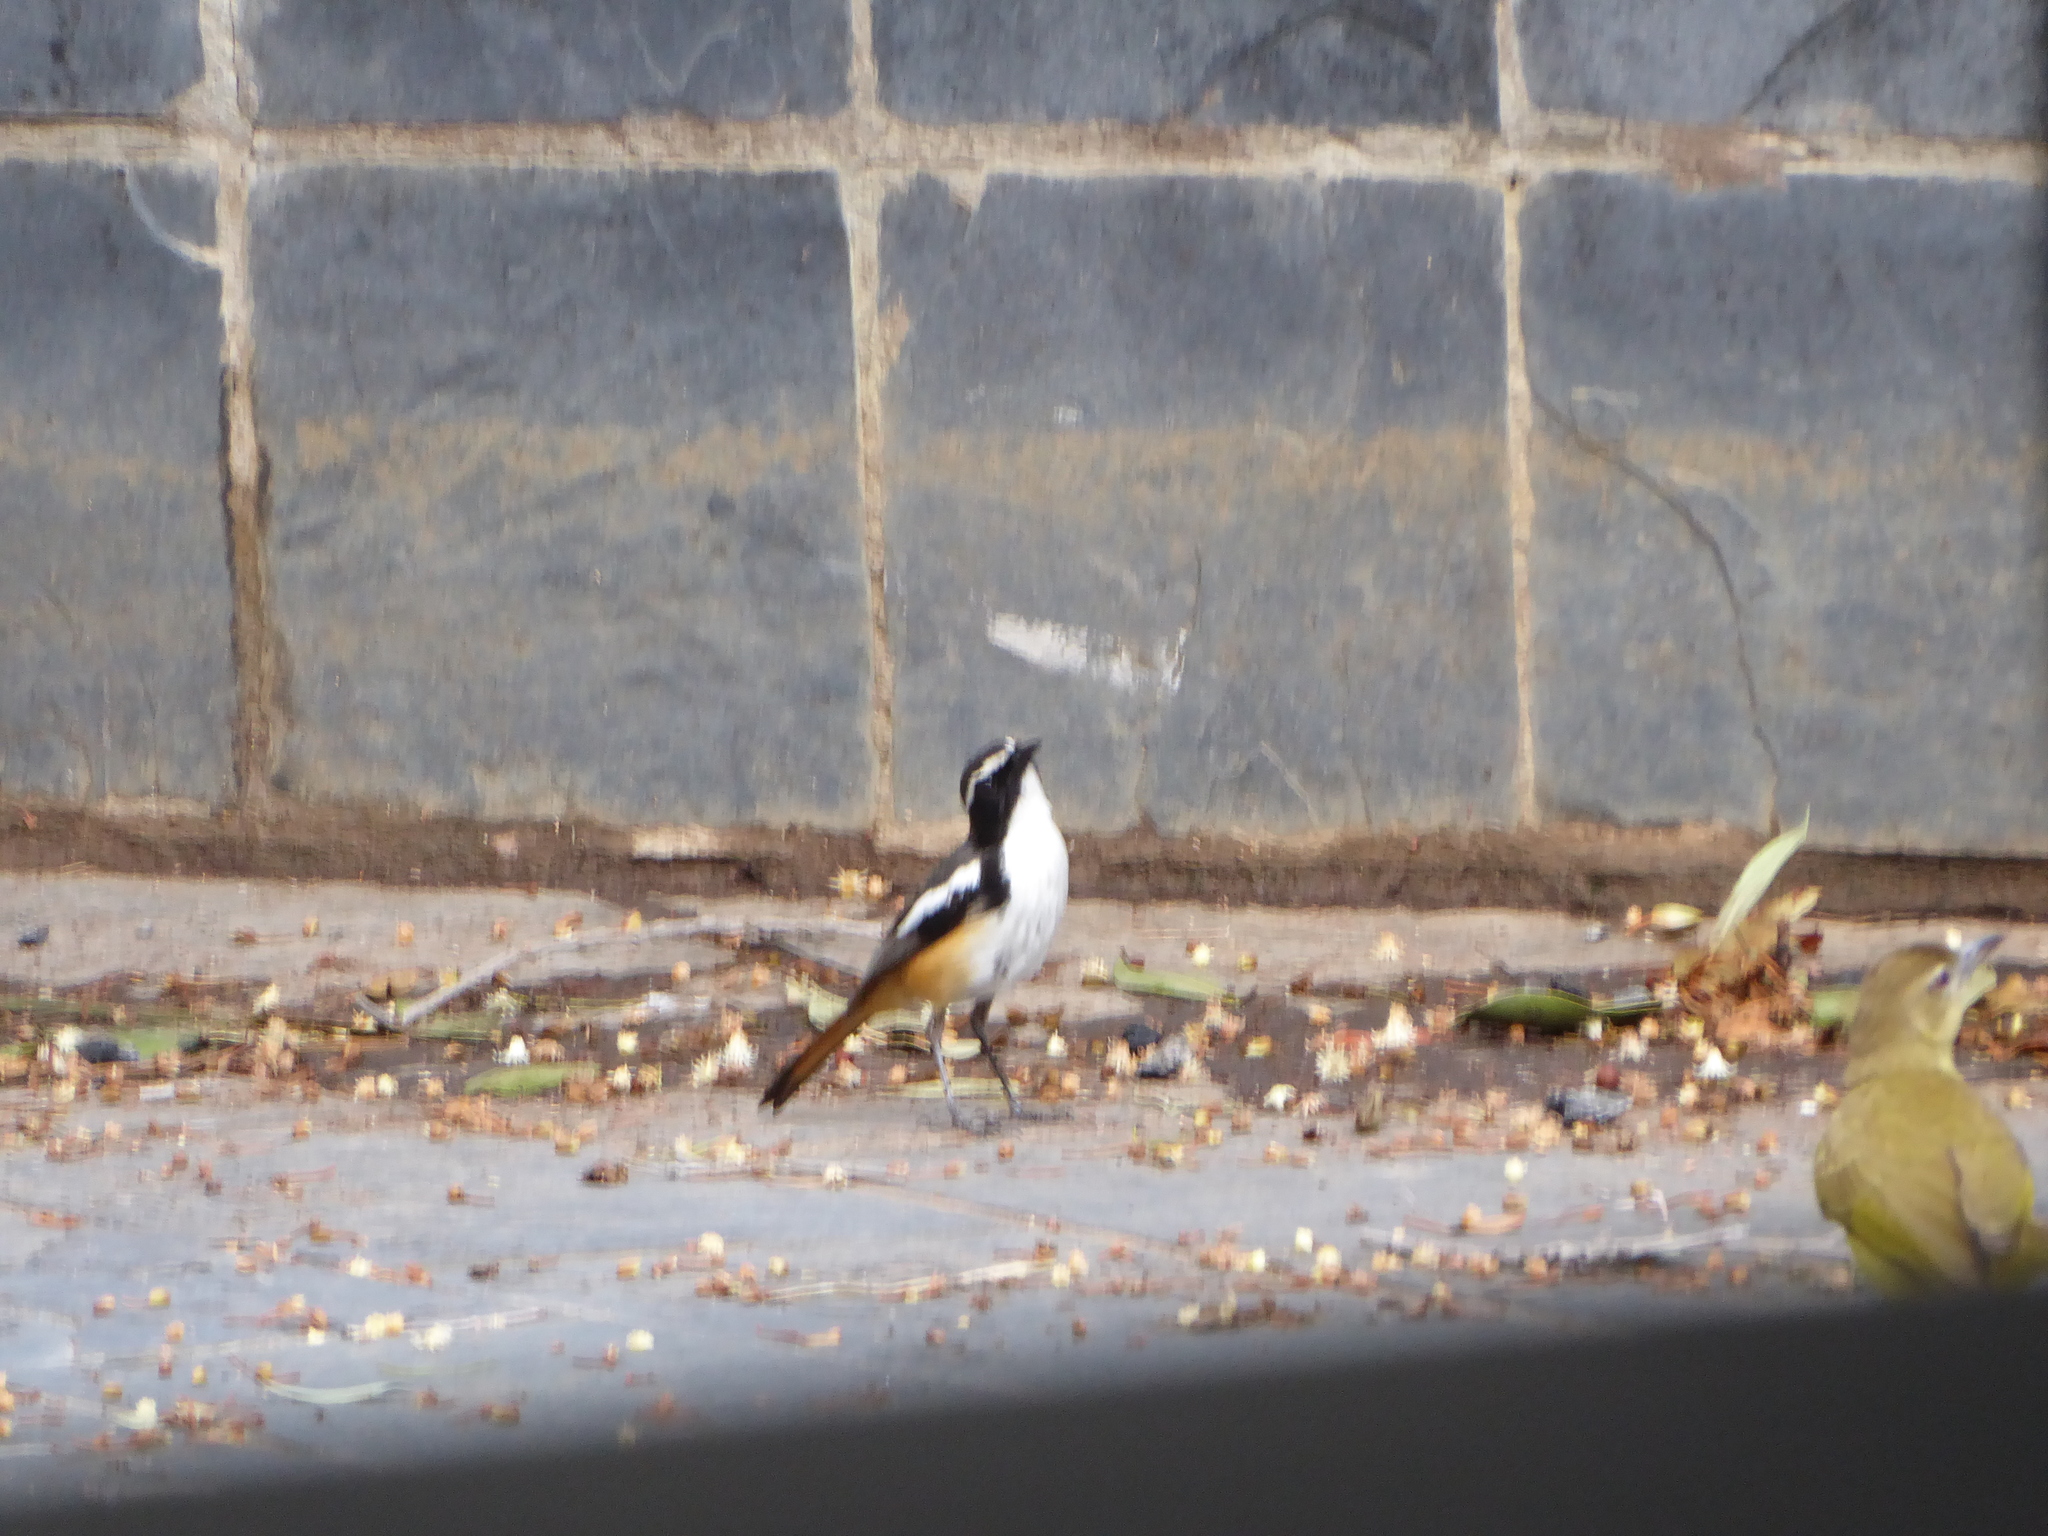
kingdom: Animalia
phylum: Chordata
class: Aves
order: Passeriformes
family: Muscicapidae
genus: Cossypha
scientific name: Cossypha humeralis
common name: White-throated robin-chat
